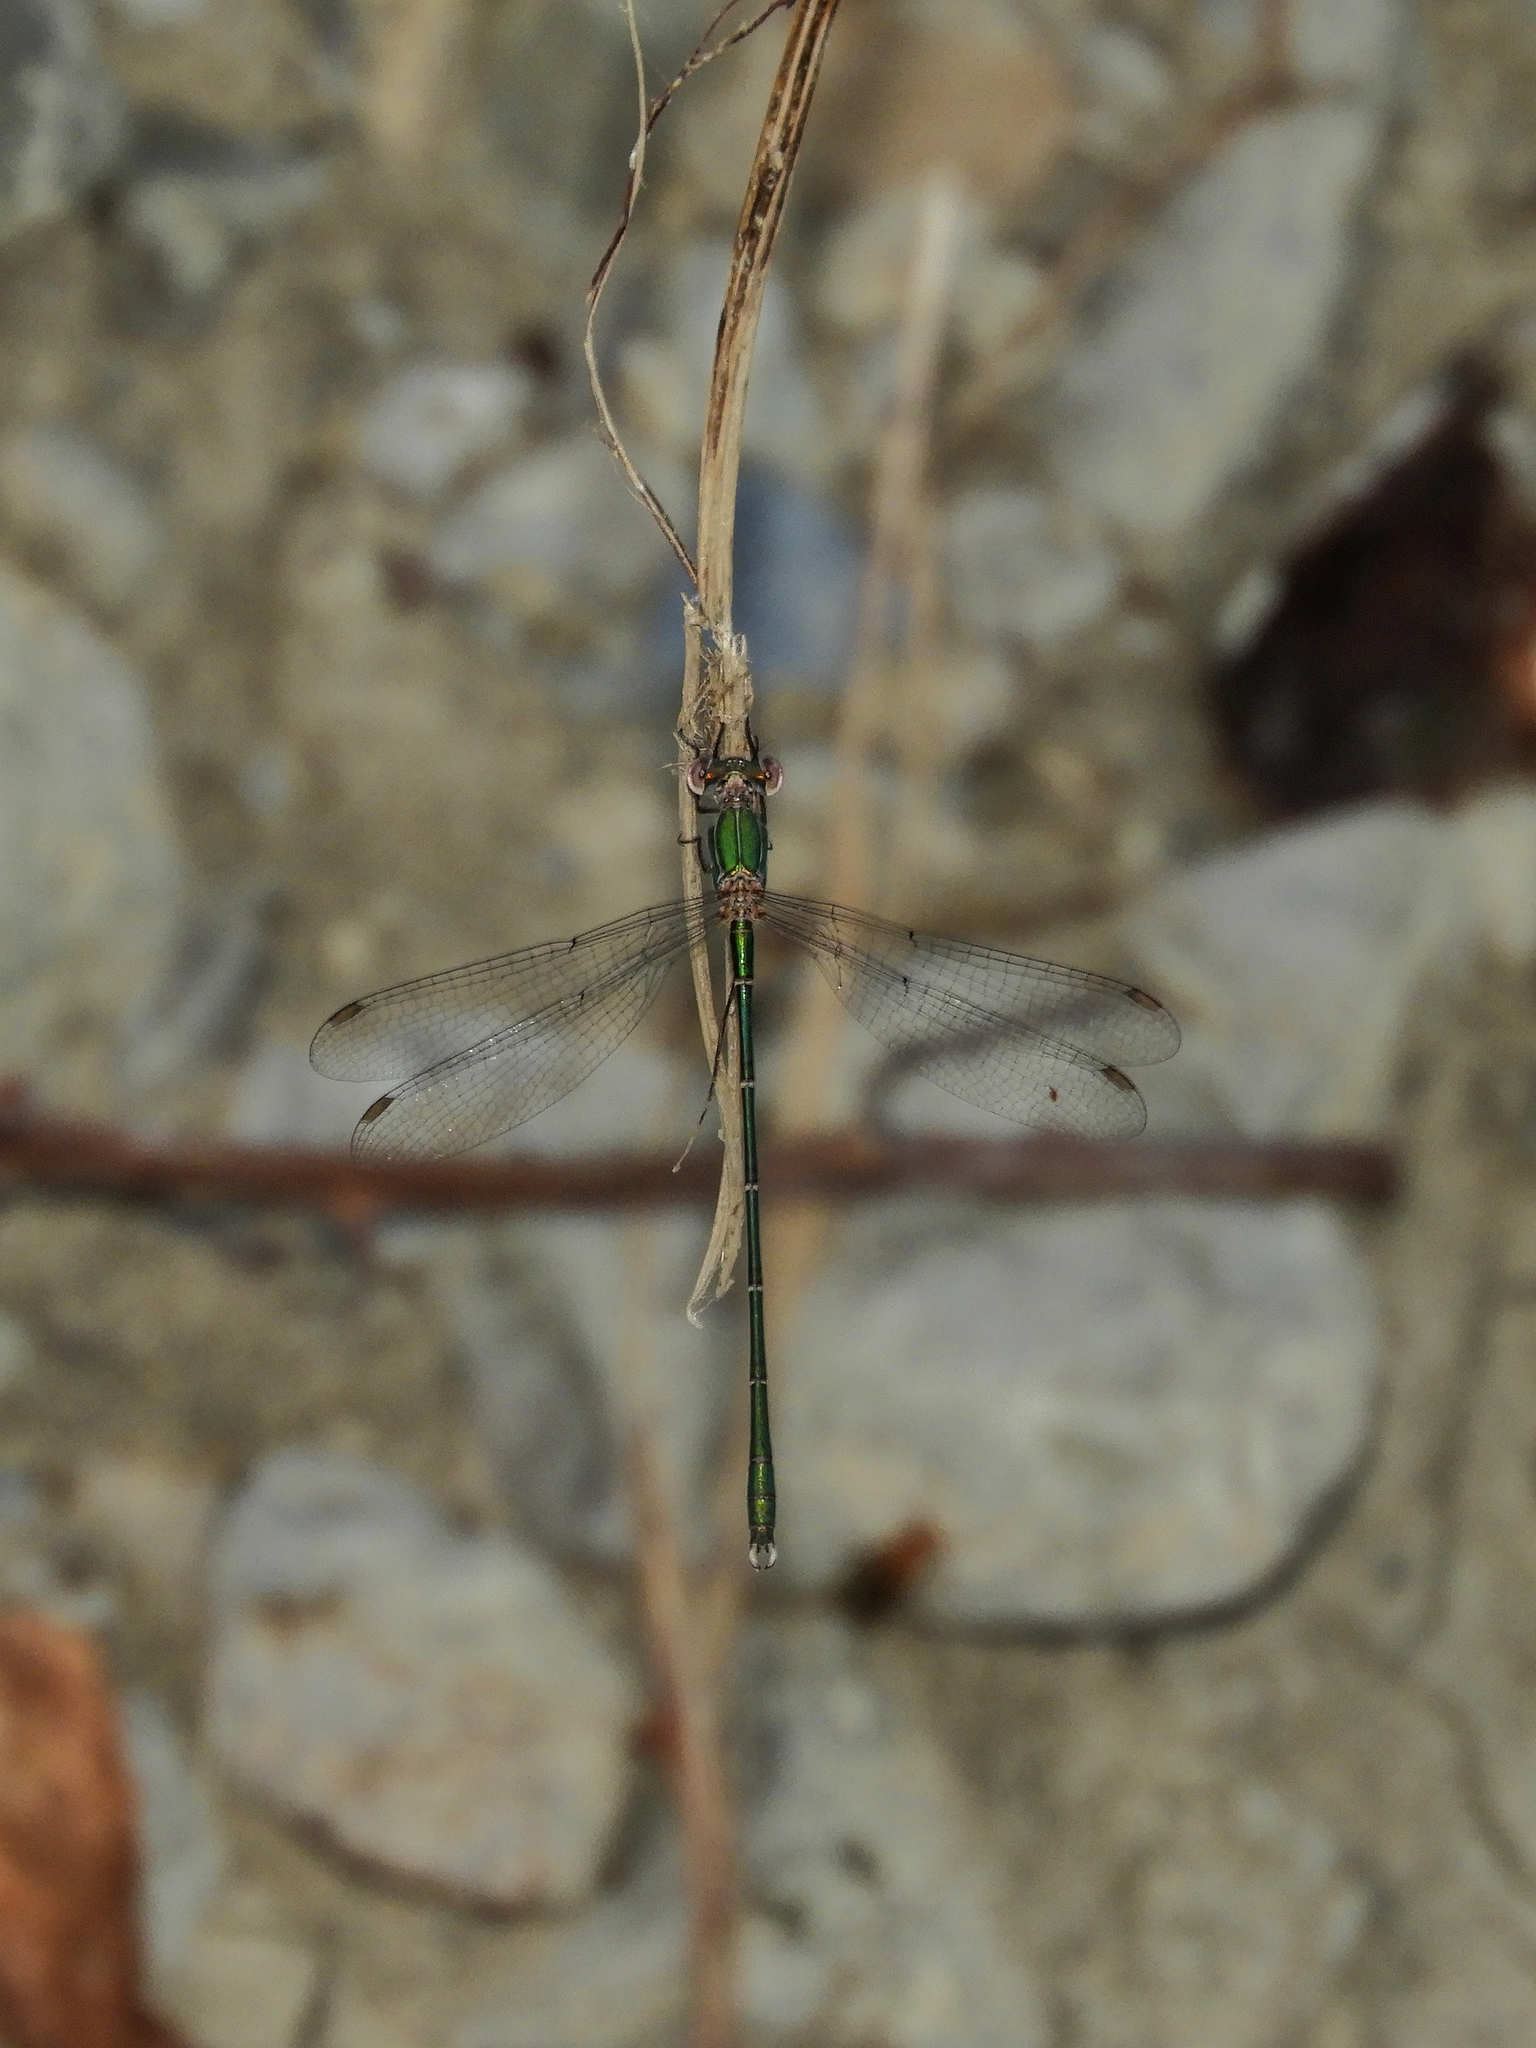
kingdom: Animalia
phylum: Arthropoda
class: Insecta
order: Odonata
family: Lestidae
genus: Chalcolestes
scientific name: Chalcolestes viridis
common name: Green emerald damselfly
